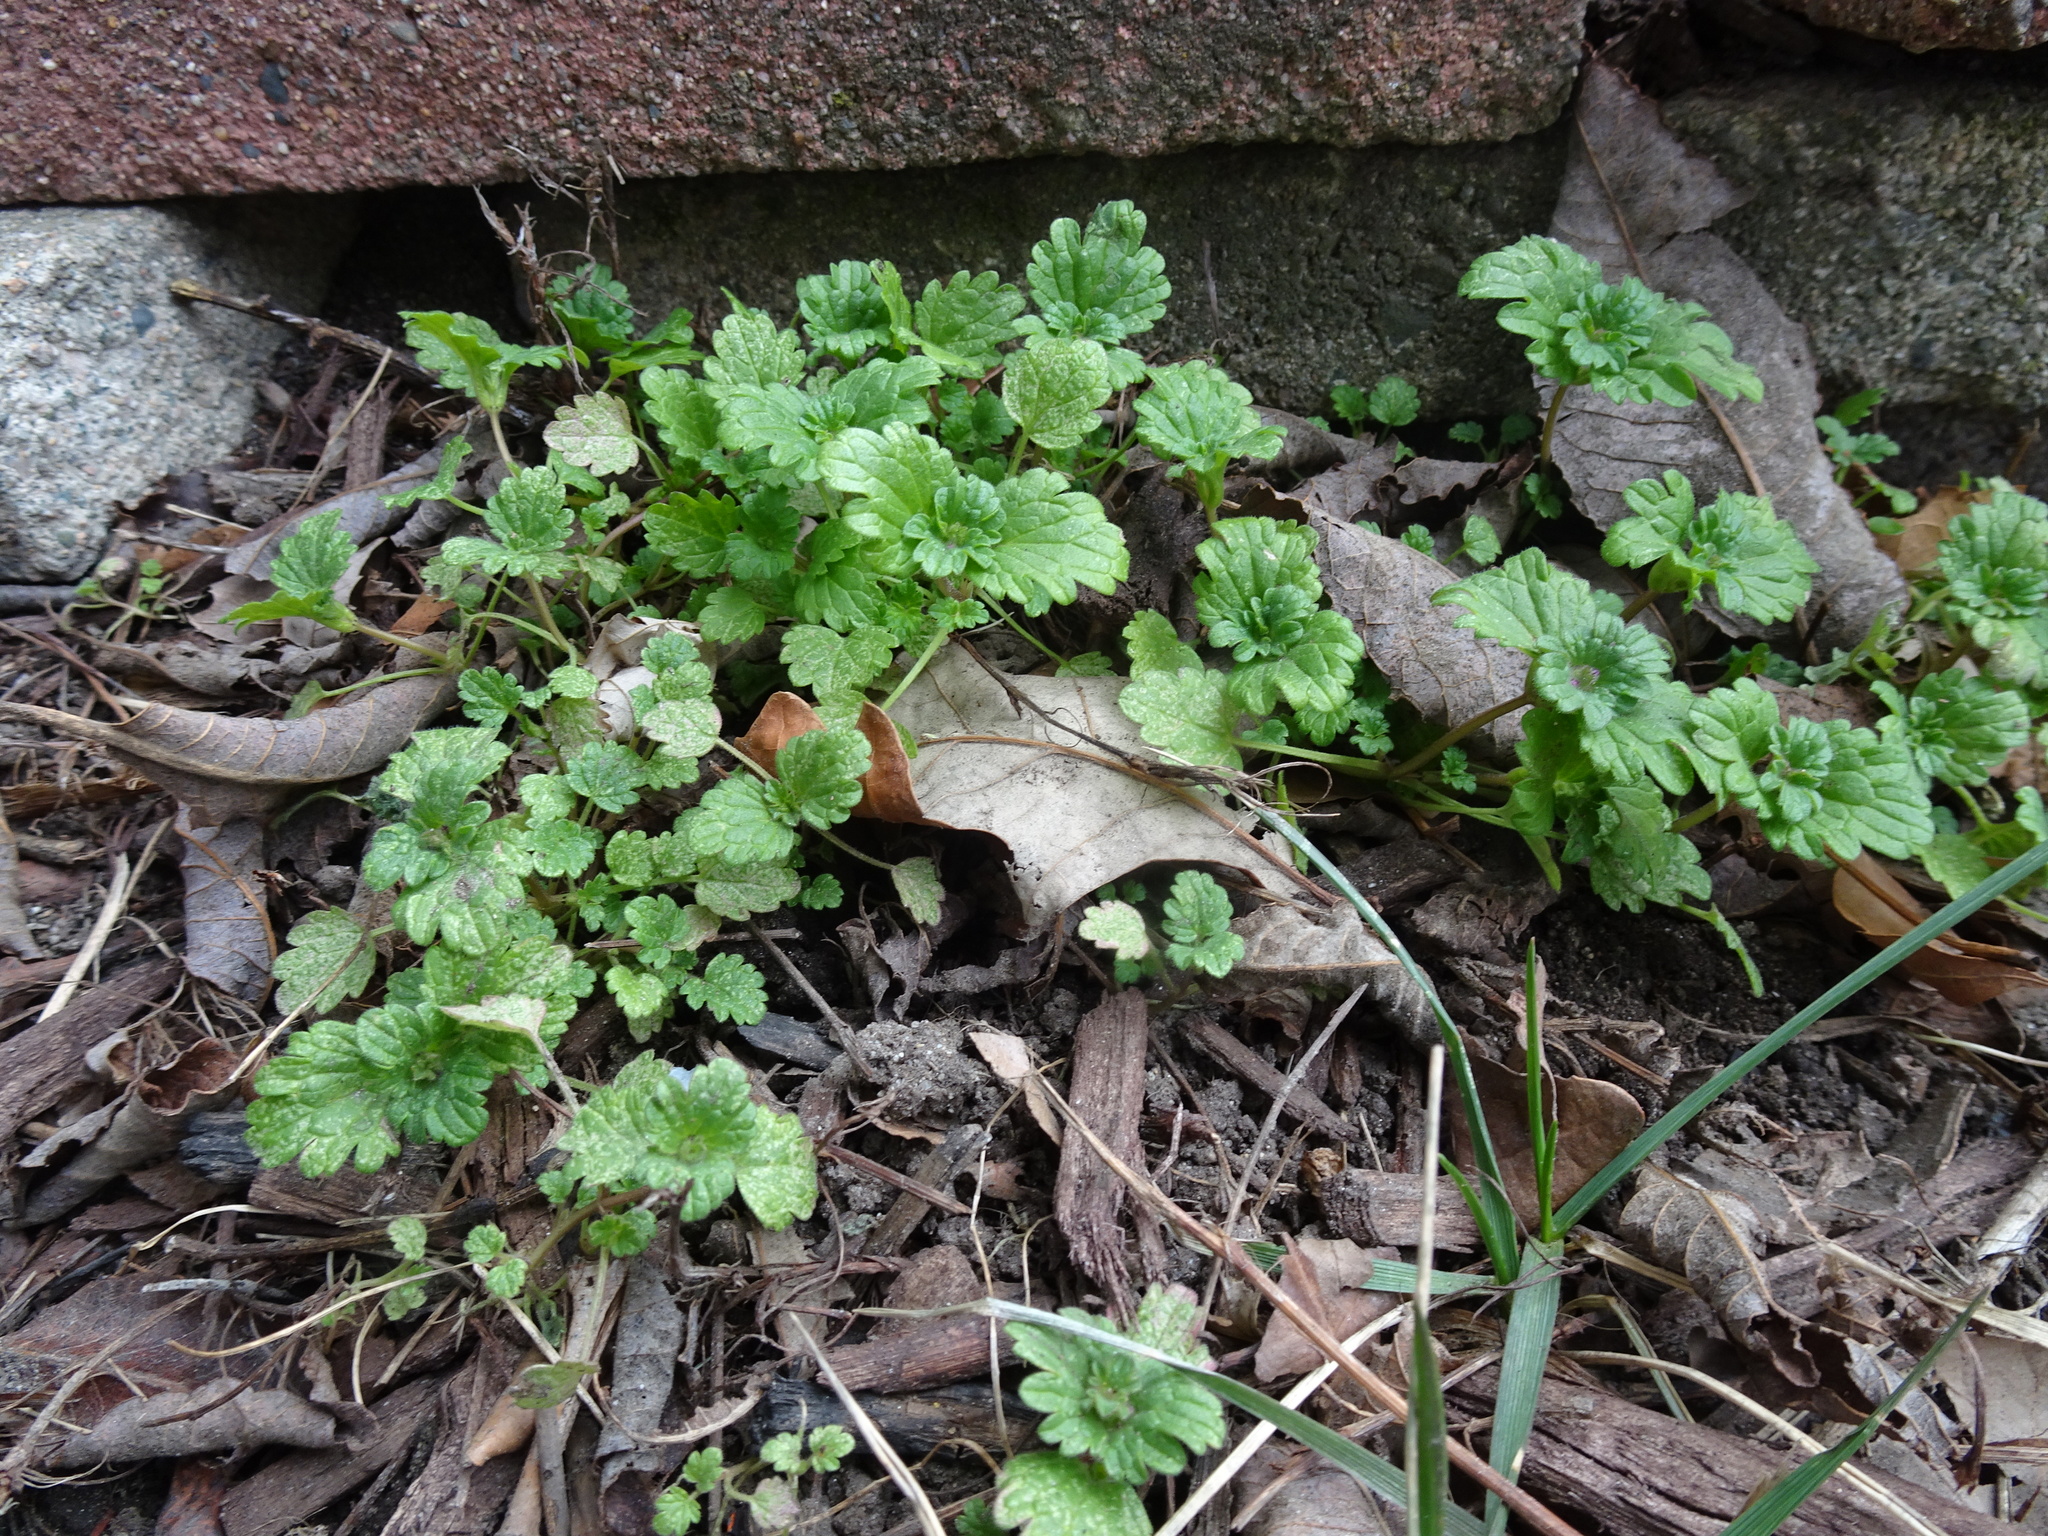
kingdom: Plantae
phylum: Tracheophyta
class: Magnoliopsida
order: Lamiales
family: Lamiaceae
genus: Lamium
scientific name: Lamium amplexicaule
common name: Henbit dead-nettle
